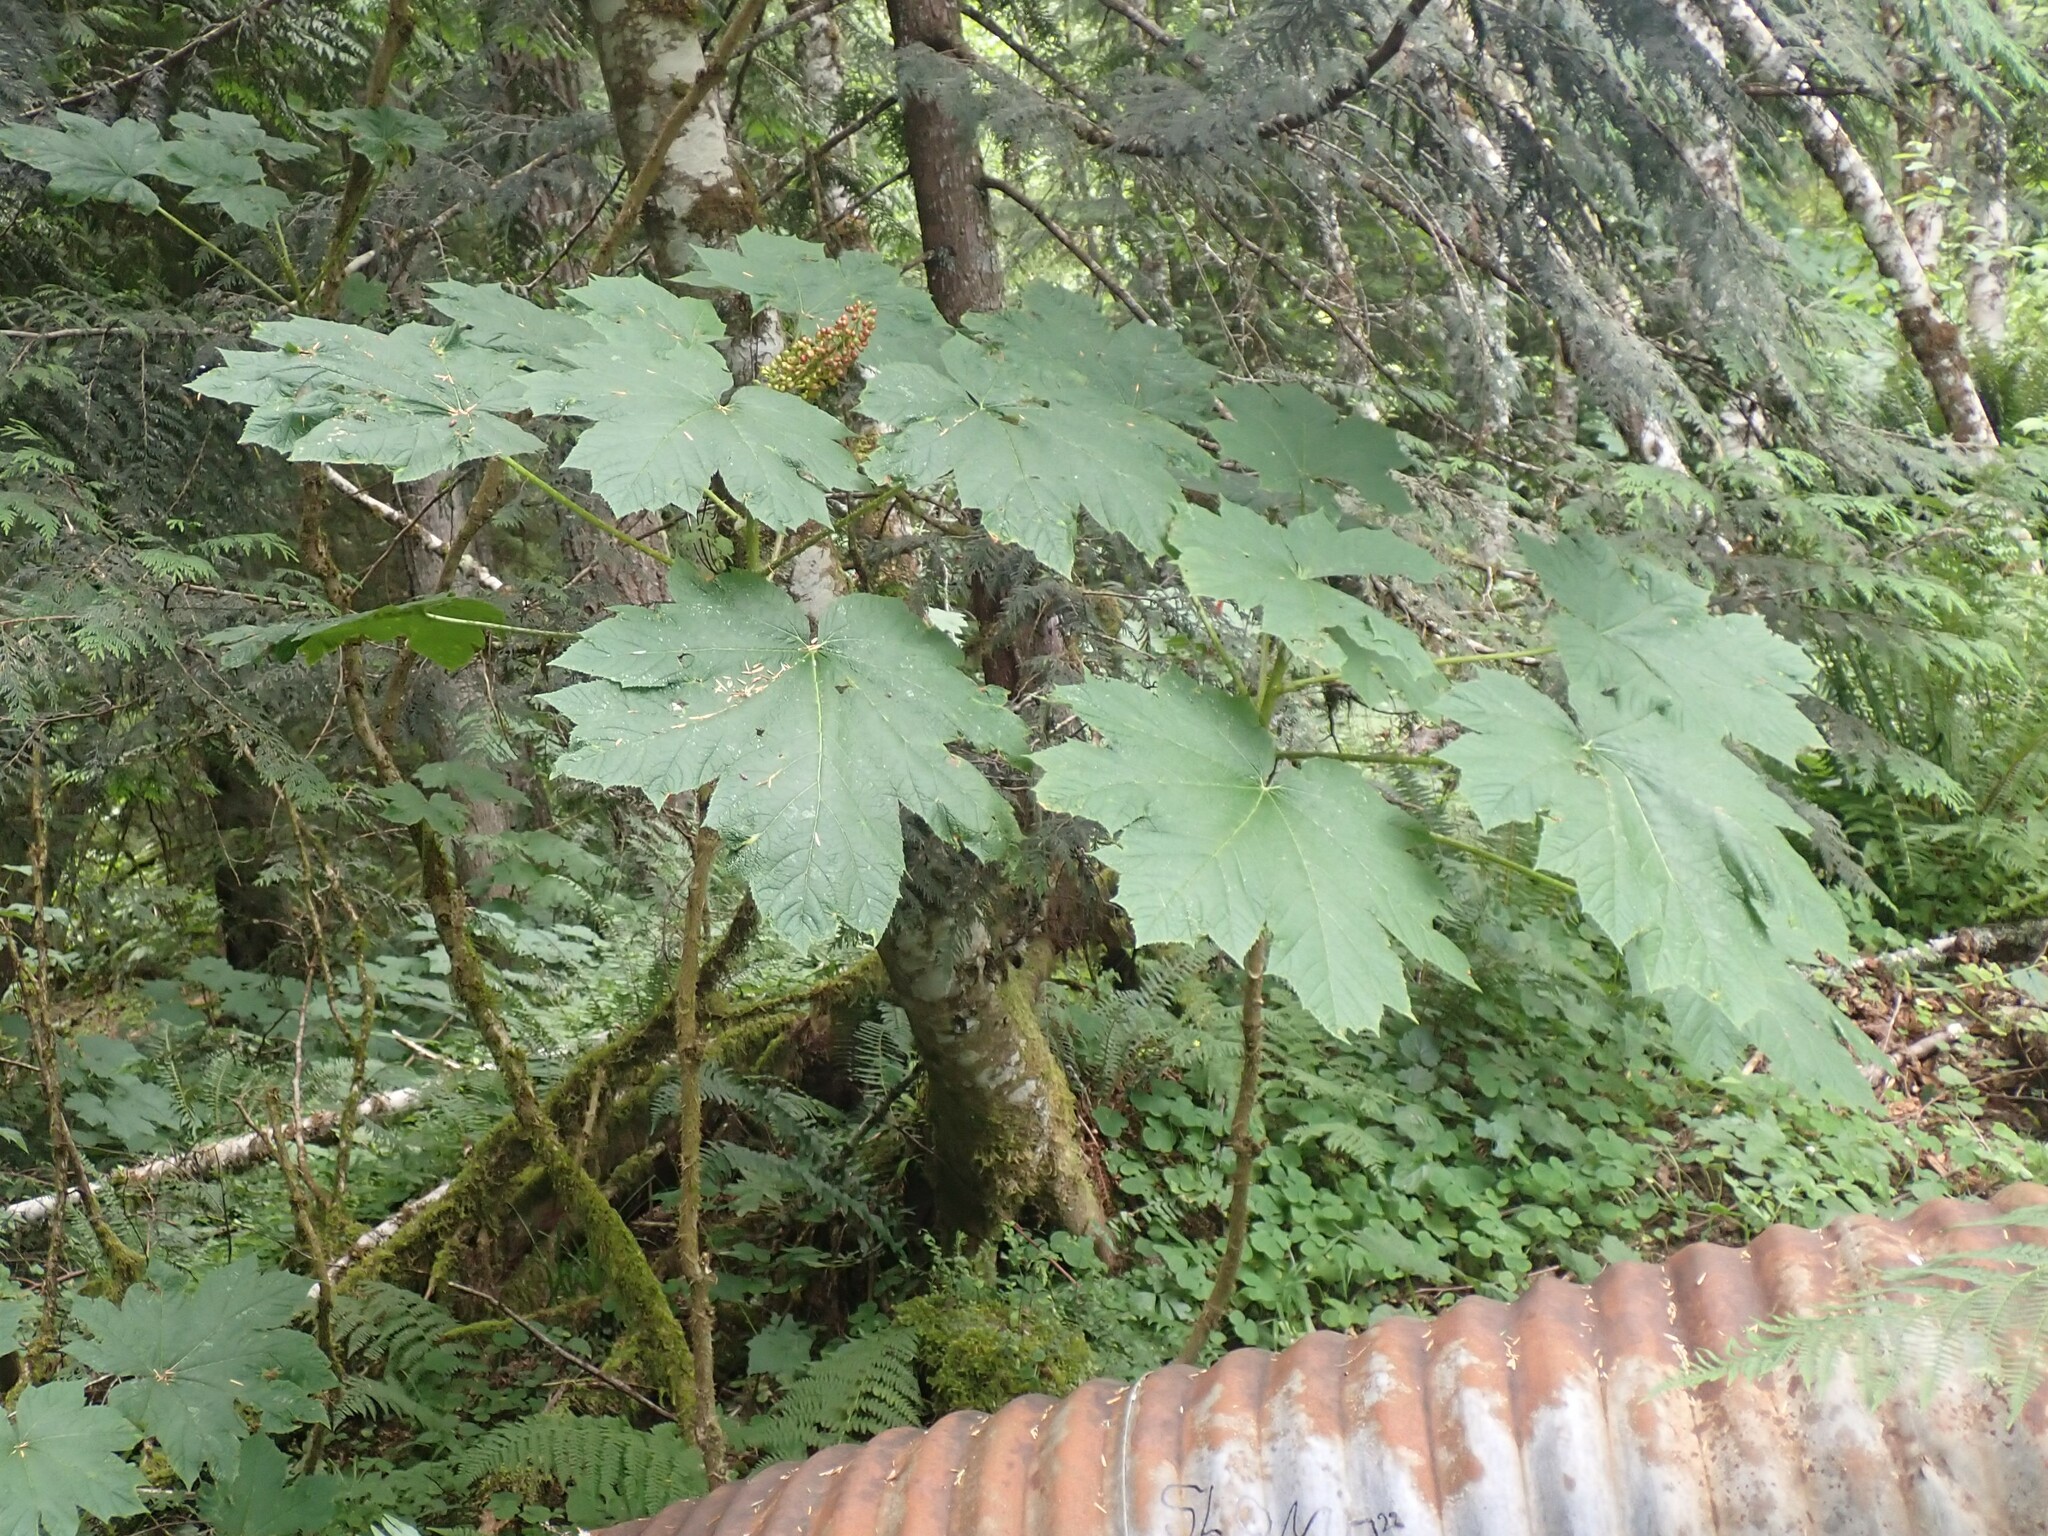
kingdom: Plantae
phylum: Tracheophyta
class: Magnoliopsida
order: Apiales
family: Araliaceae
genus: Oplopanax
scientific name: Oplopanax horridus
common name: Devil's walking-stick
